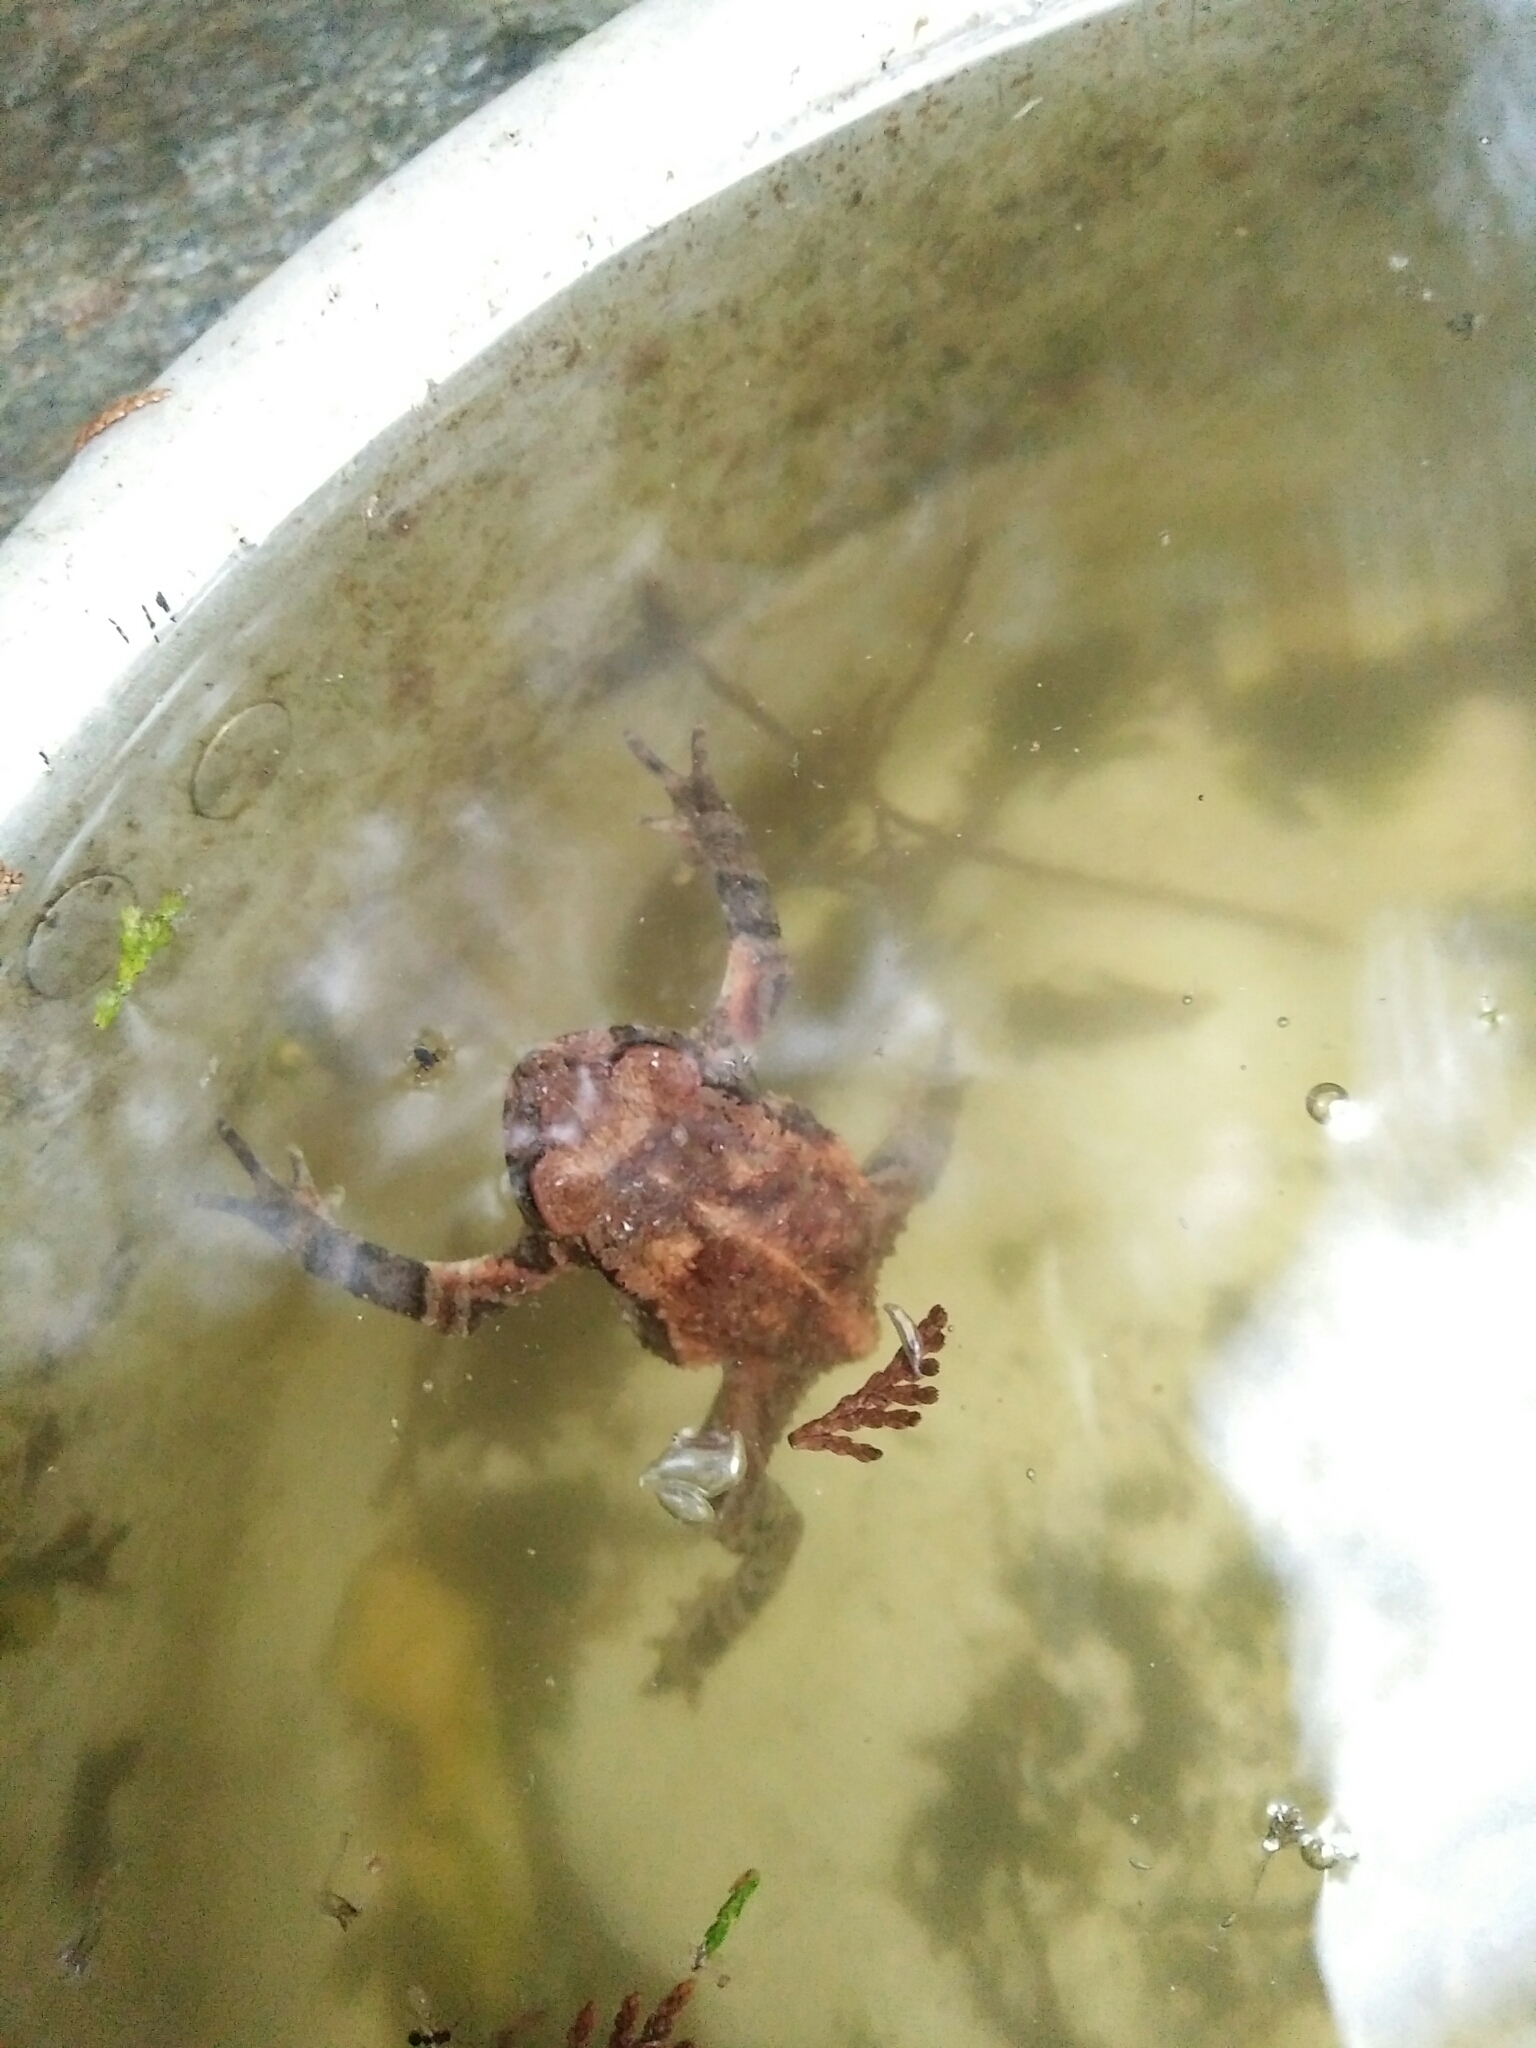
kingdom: Animalia
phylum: Chordata
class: Amphibia
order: Anura
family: Bufonidae
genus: Bufo
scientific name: Bufo bankorensis
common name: Bankor toad
